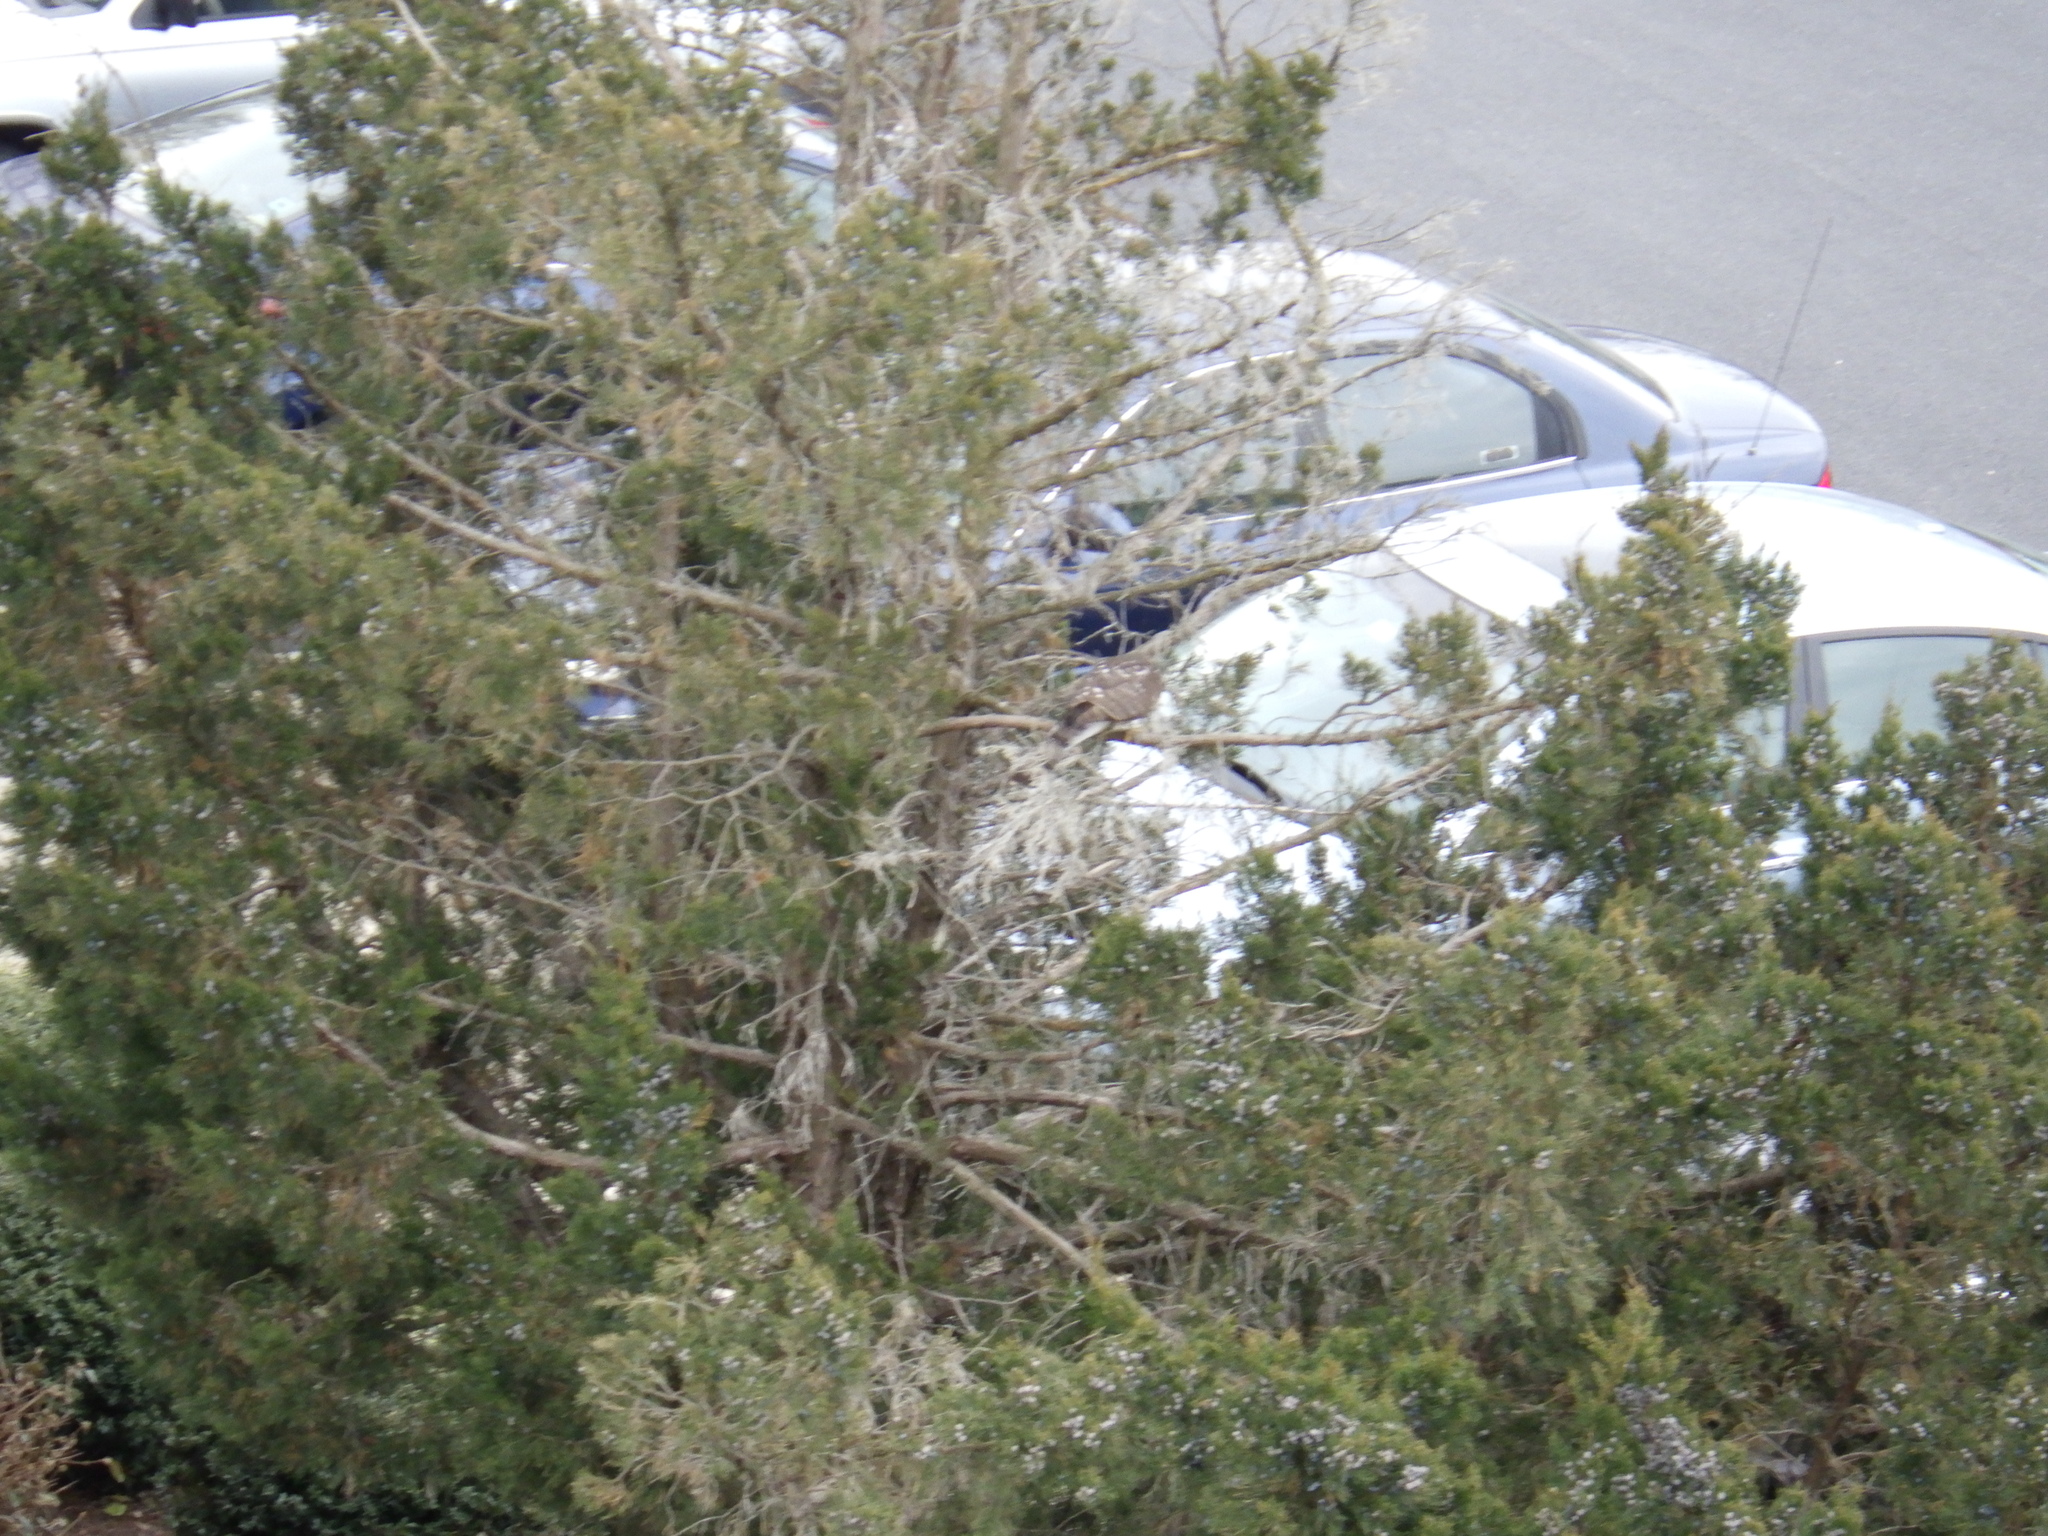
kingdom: Animalia
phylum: Chordata
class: Aves
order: Accipitriformes
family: Accipitridae
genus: Accipiter
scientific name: Accipiter cooperii
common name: Cooper's hawk
